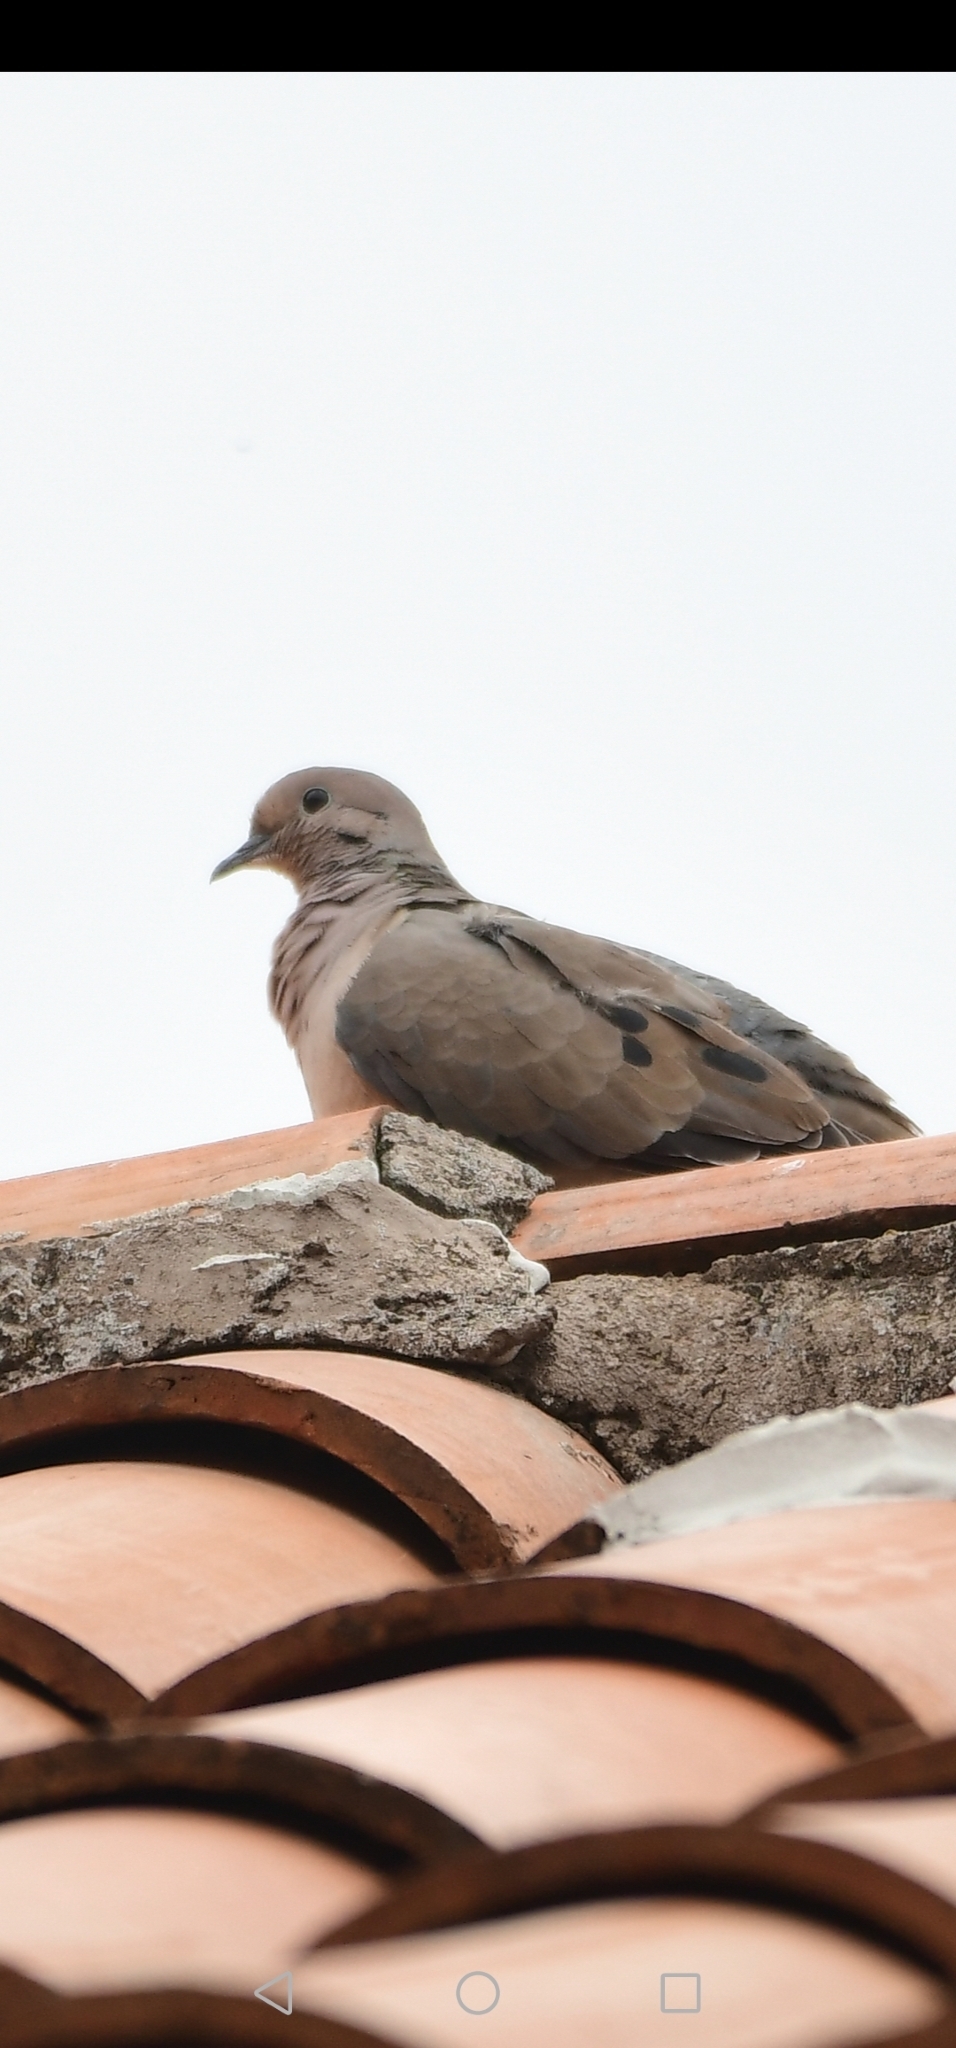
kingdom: Animalia
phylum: Chordata
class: Aves
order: Columbiformes
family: Columbidae
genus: Zenaida
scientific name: Zenaida auriculata
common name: Eared dove
